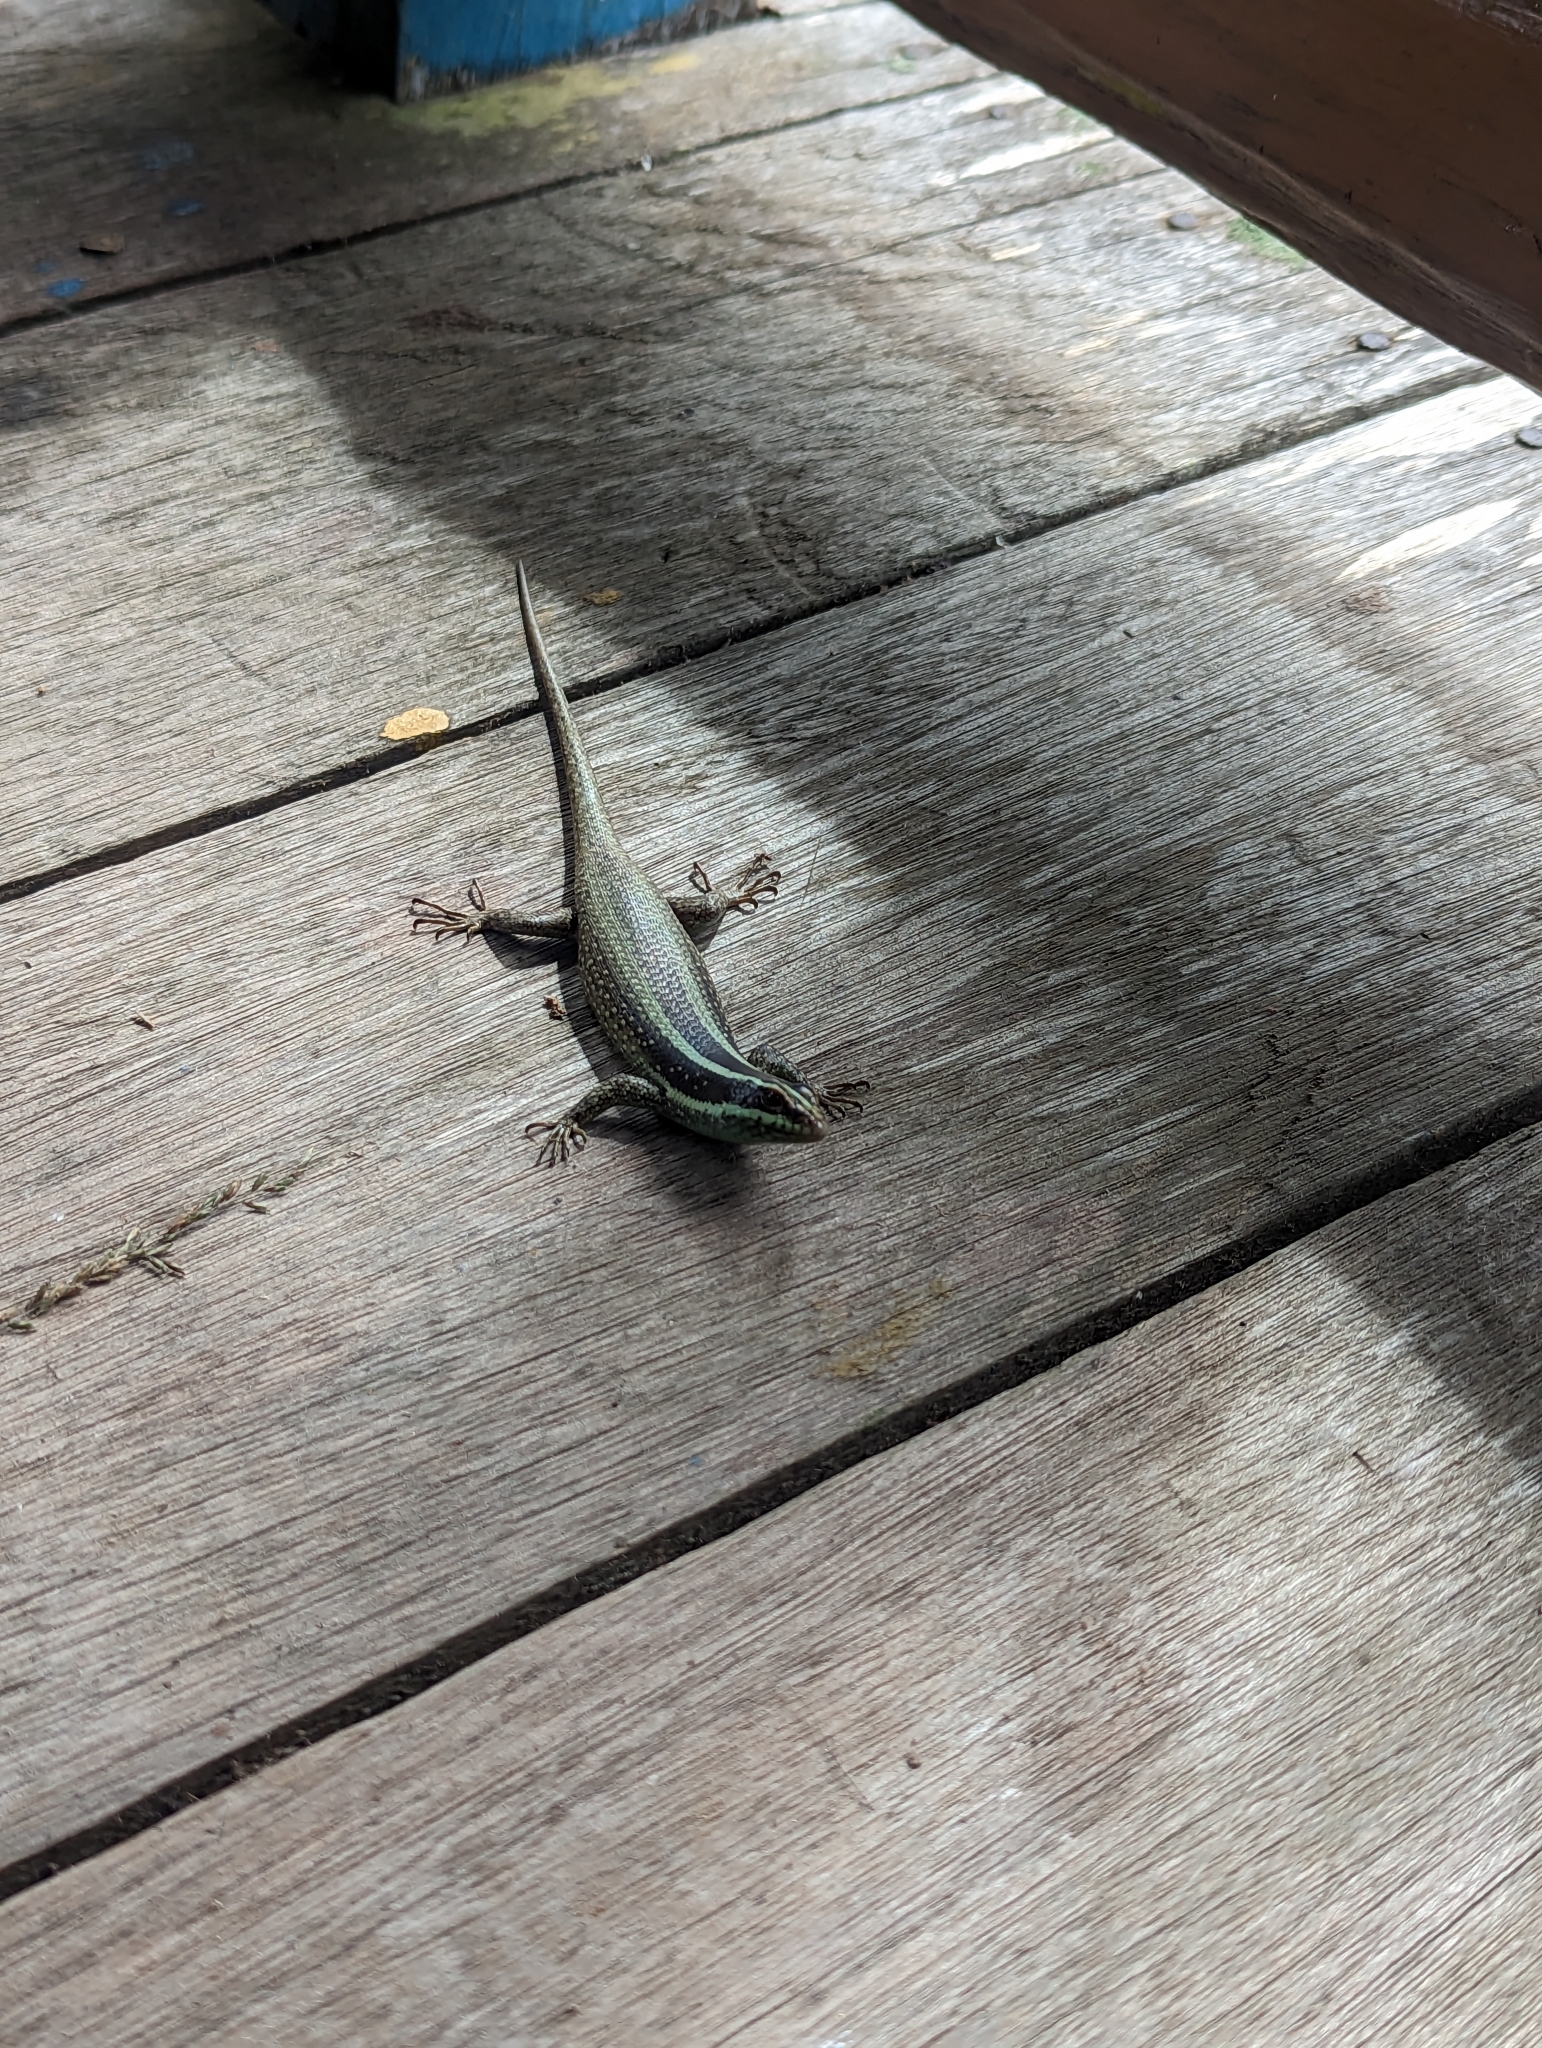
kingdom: Animalia
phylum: Chordata
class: Squamata
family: Scincidae
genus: Dasia
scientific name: Dasia vittata
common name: Borneo skink
